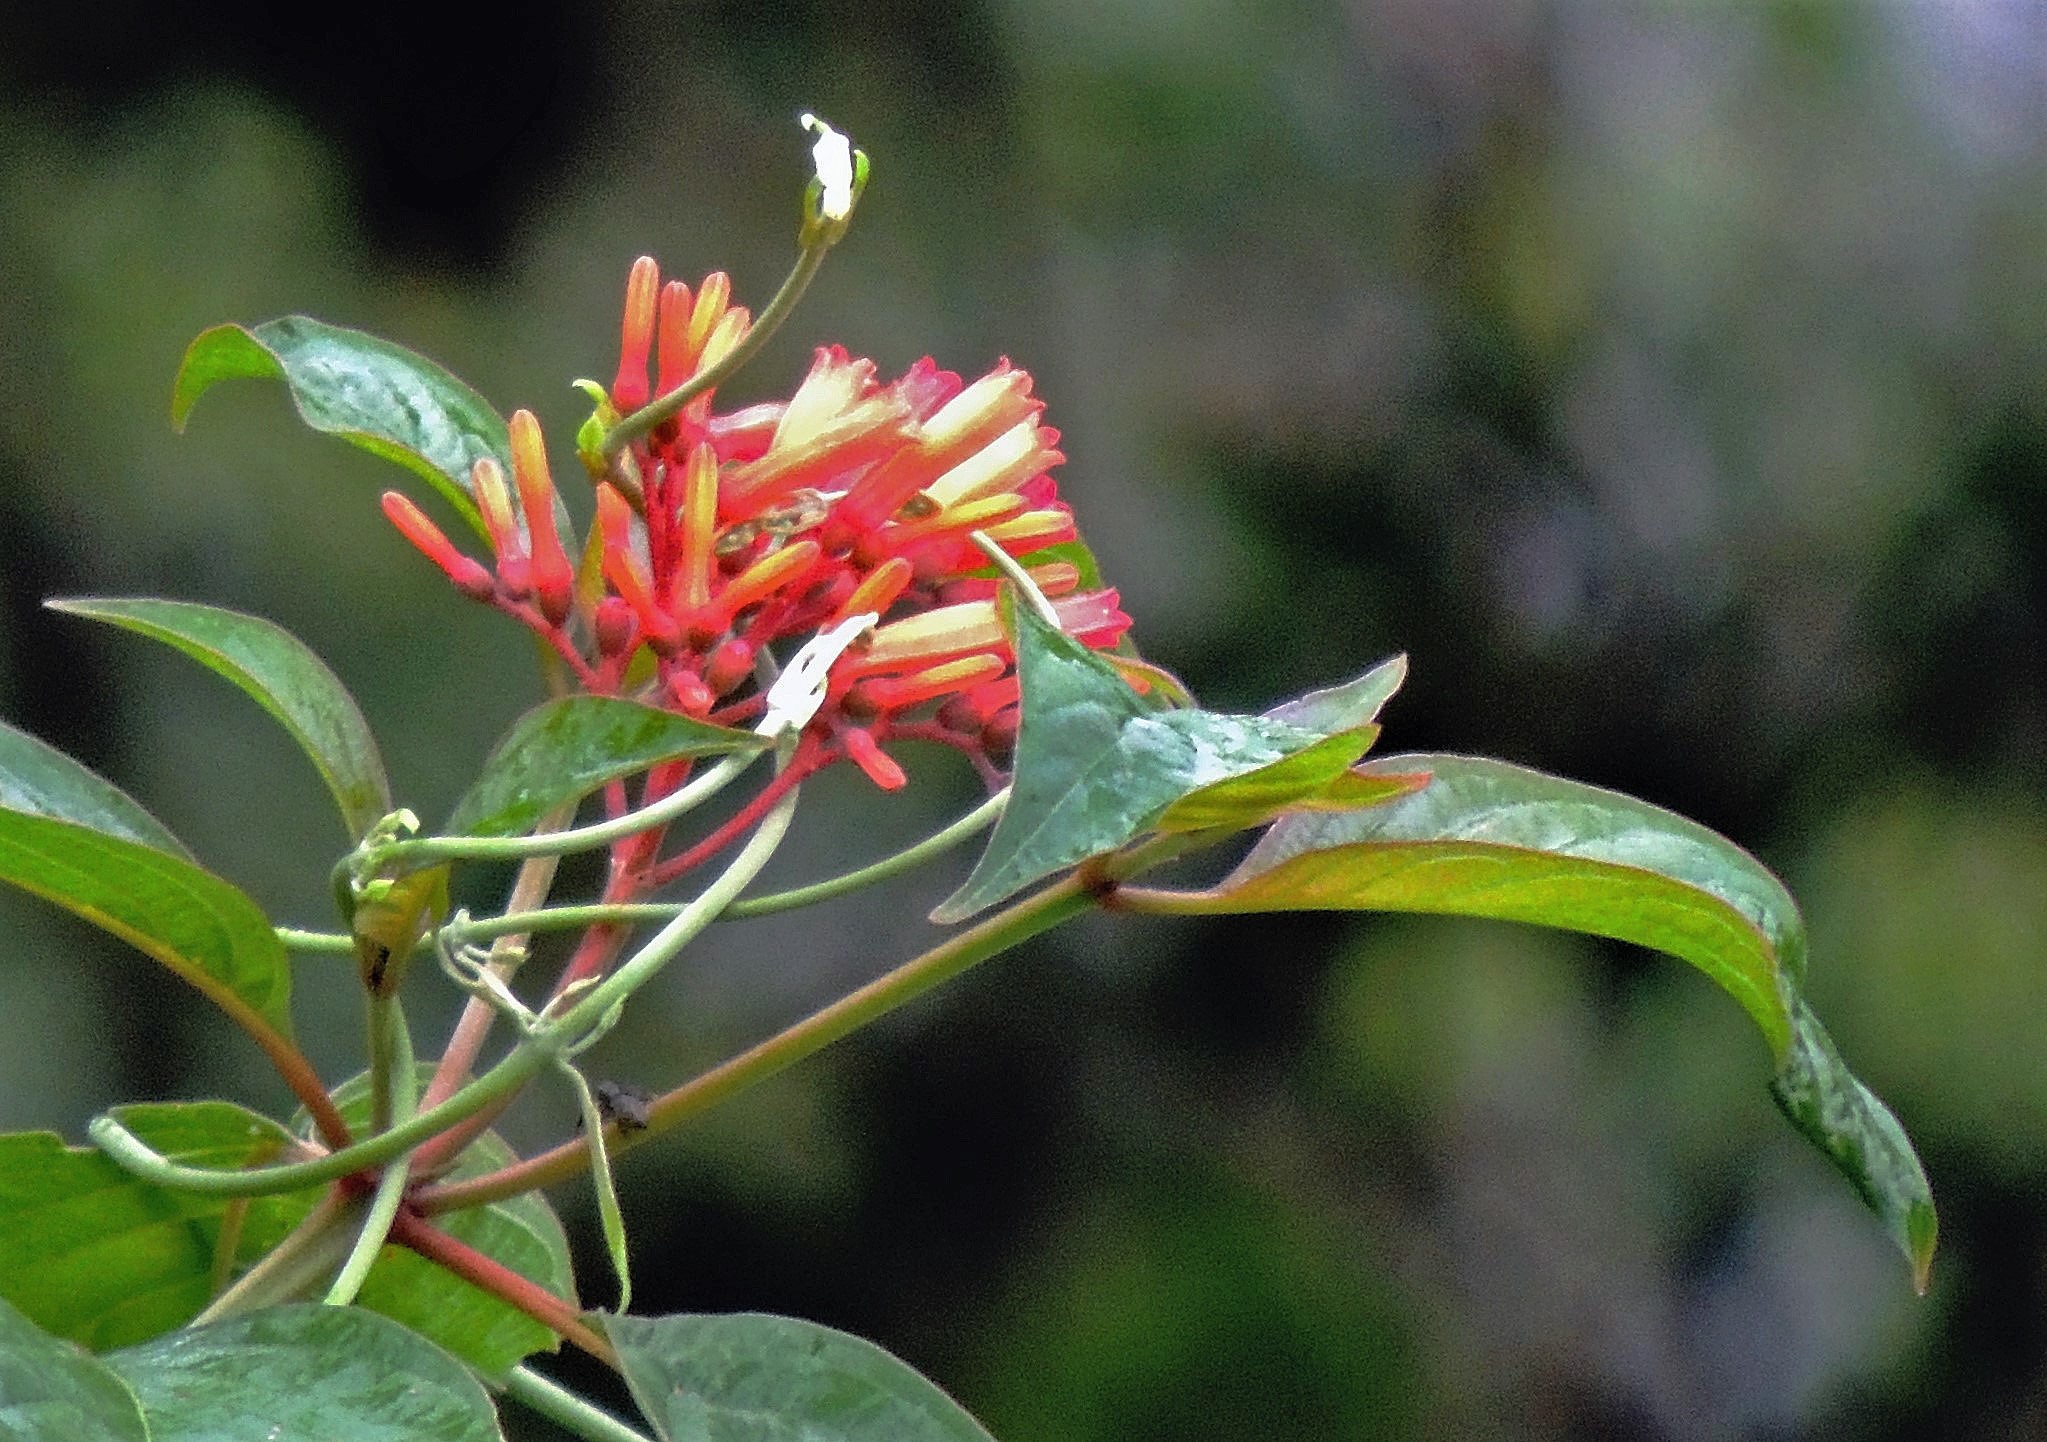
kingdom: Plantae
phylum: Tracheophyta
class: Magnoliopsida
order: Gentianales
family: Rubiaceae
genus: Hamelia
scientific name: Hamelia patens
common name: Redhead
